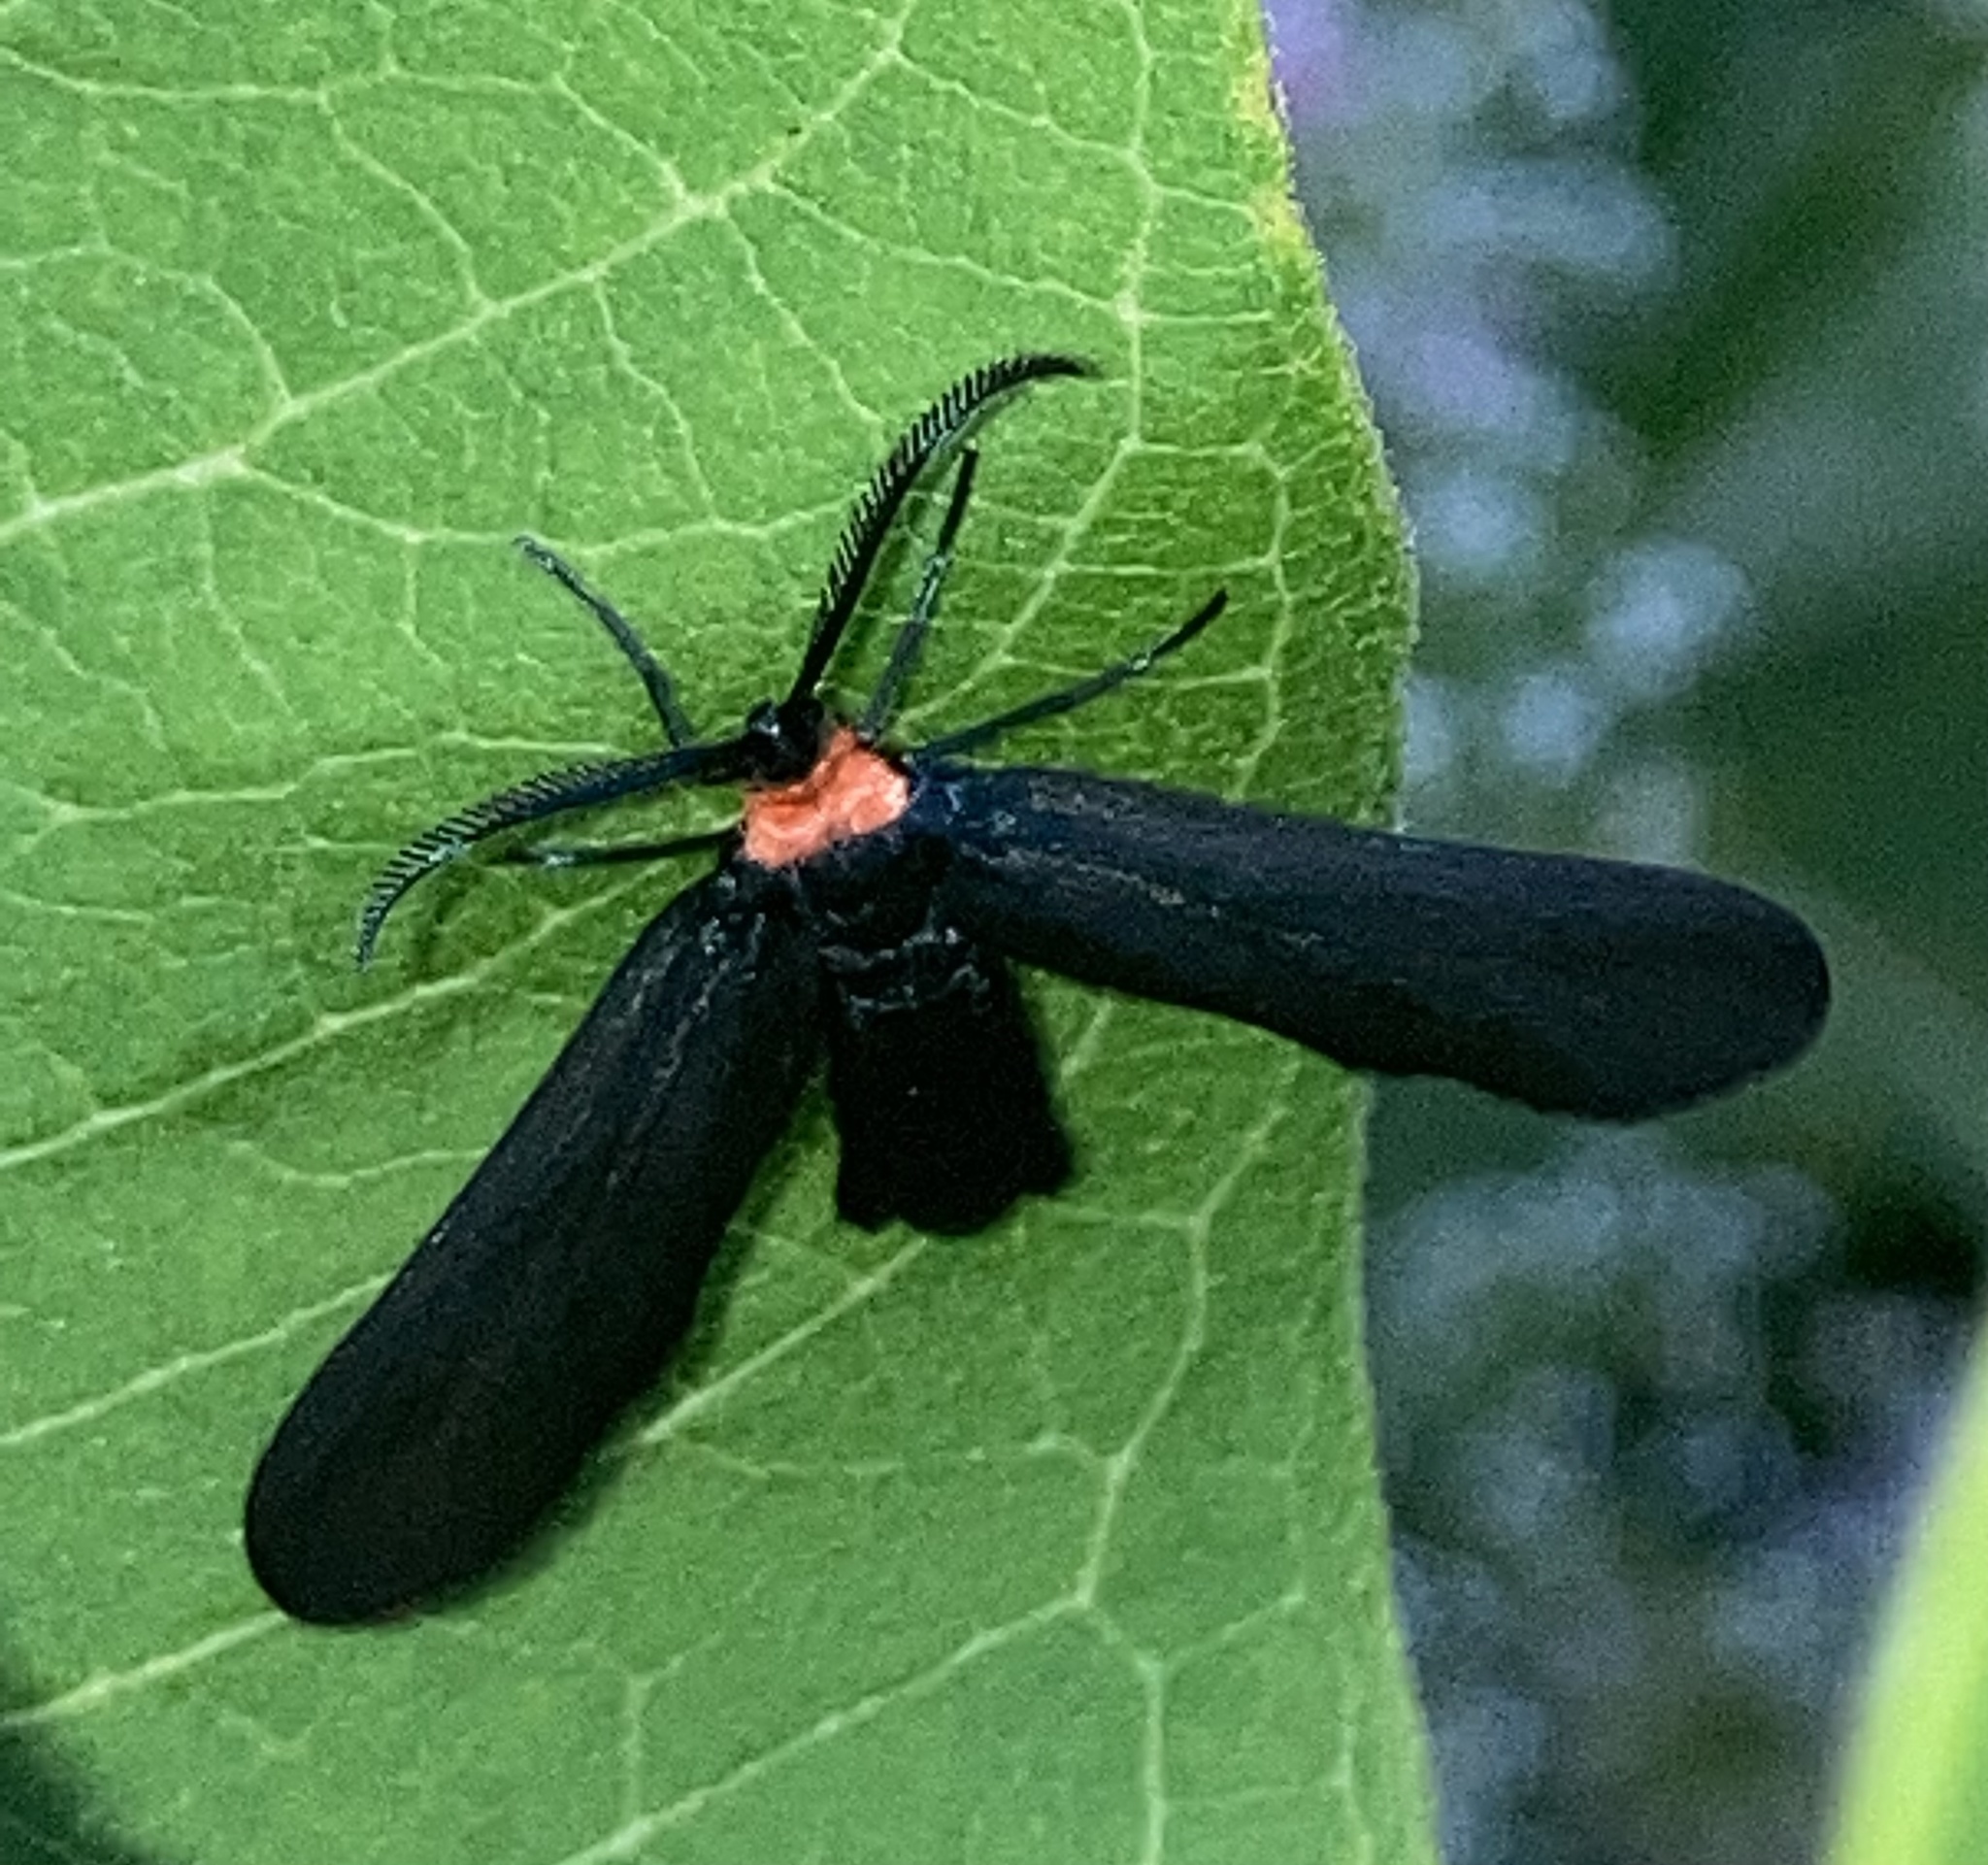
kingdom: Animalia
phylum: Arthropoda
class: Insecta
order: Lepidoptera
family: Zygaenidae
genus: Harrisina
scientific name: Harrisina americana
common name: Grapeleaf skeletonizer moth
